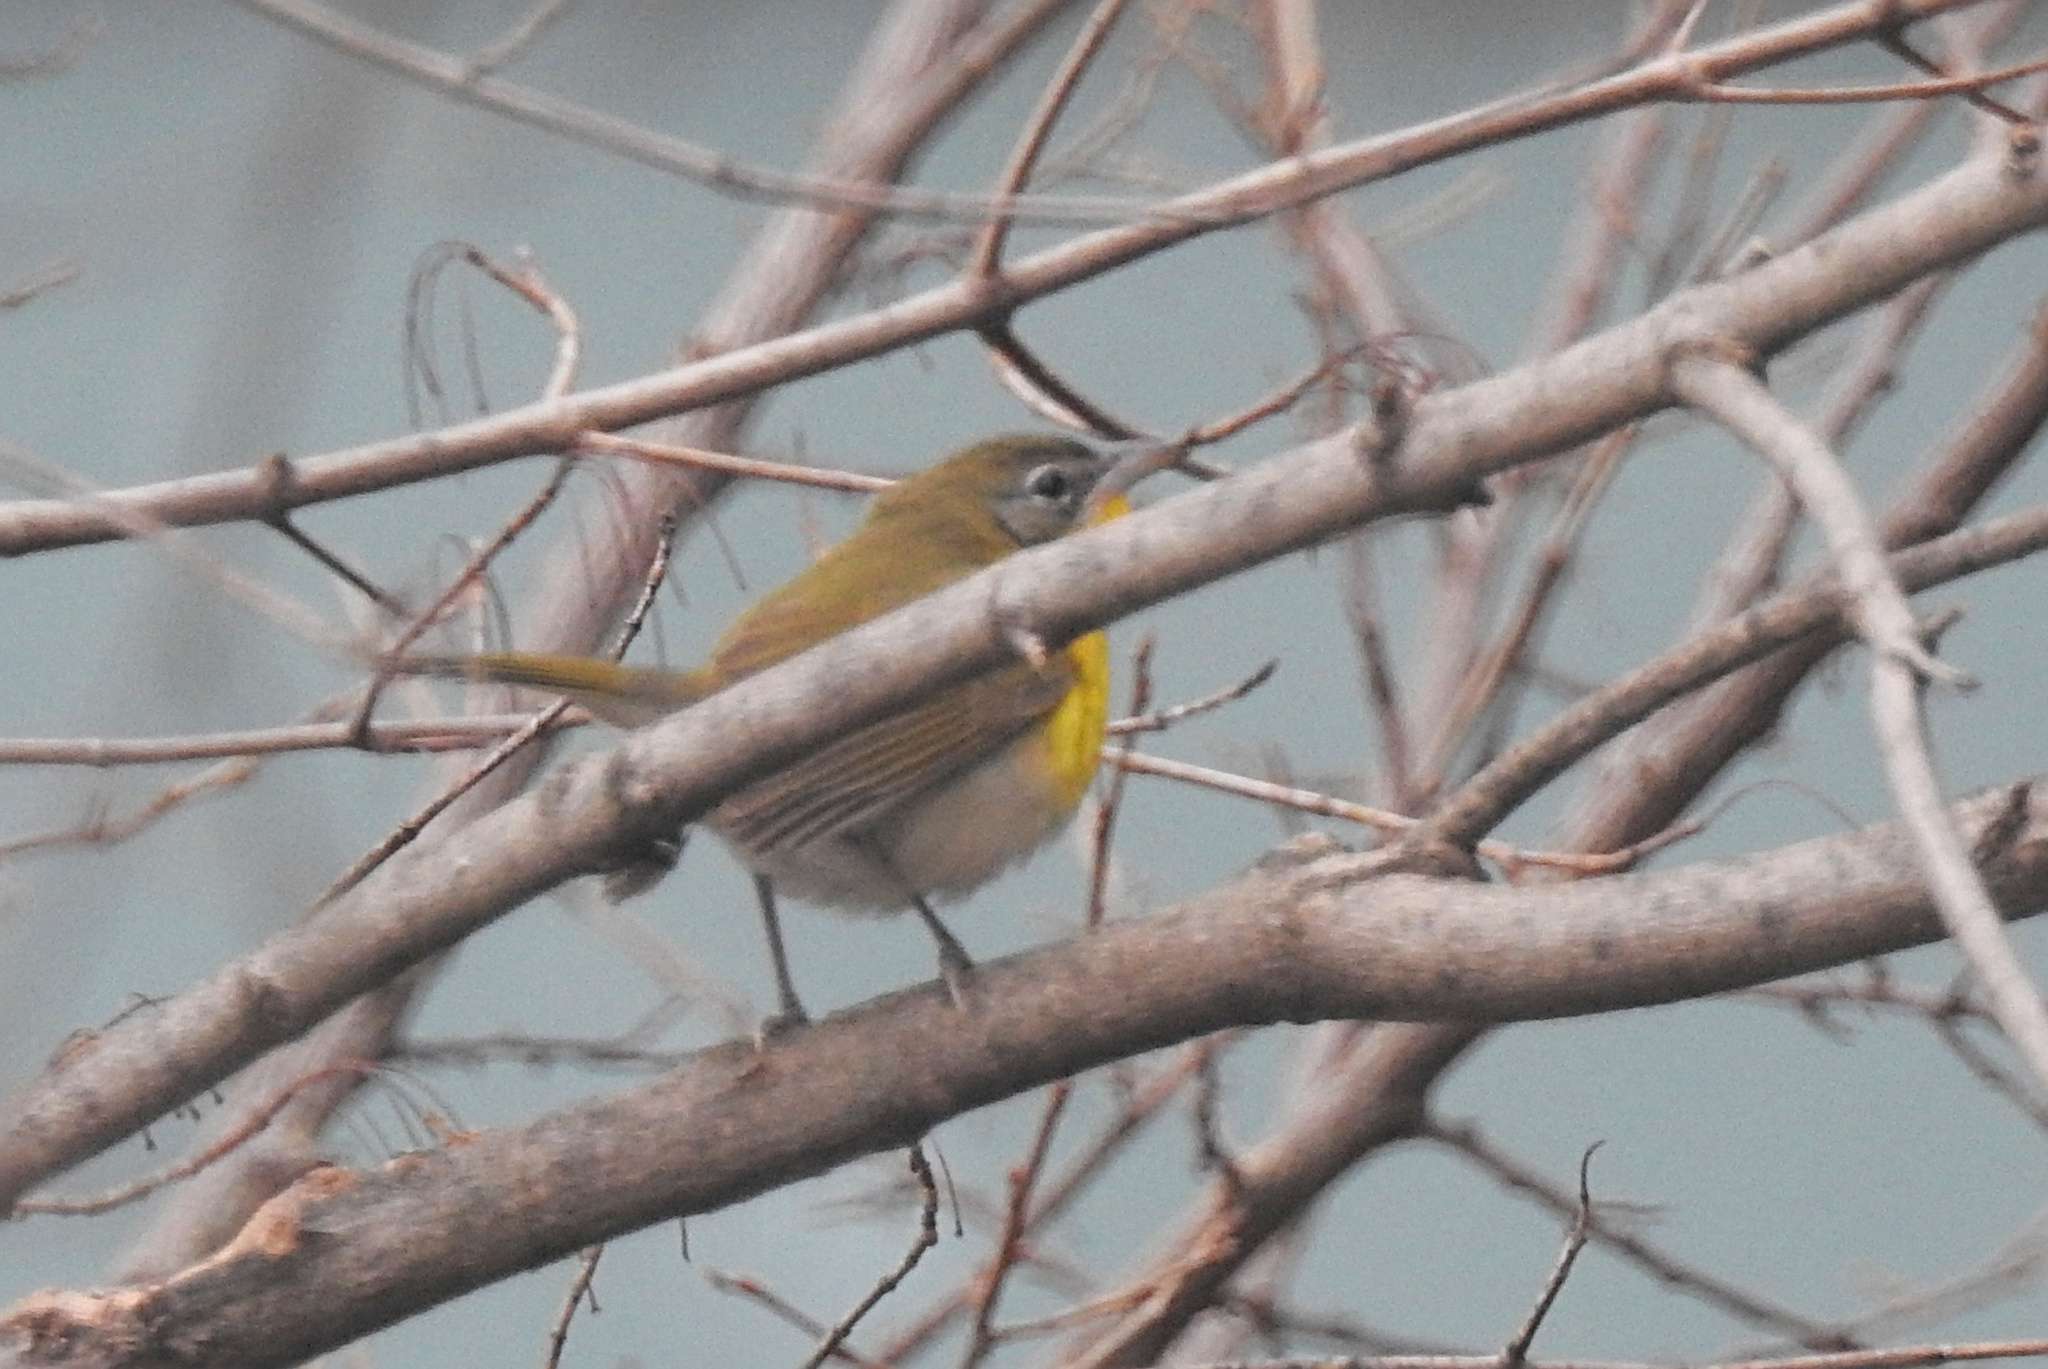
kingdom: Animalia
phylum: Chordata
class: Aves
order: Passeriformes
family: Parulidae
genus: Icteria
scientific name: Icteria virens
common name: Yellow-breasted chat
